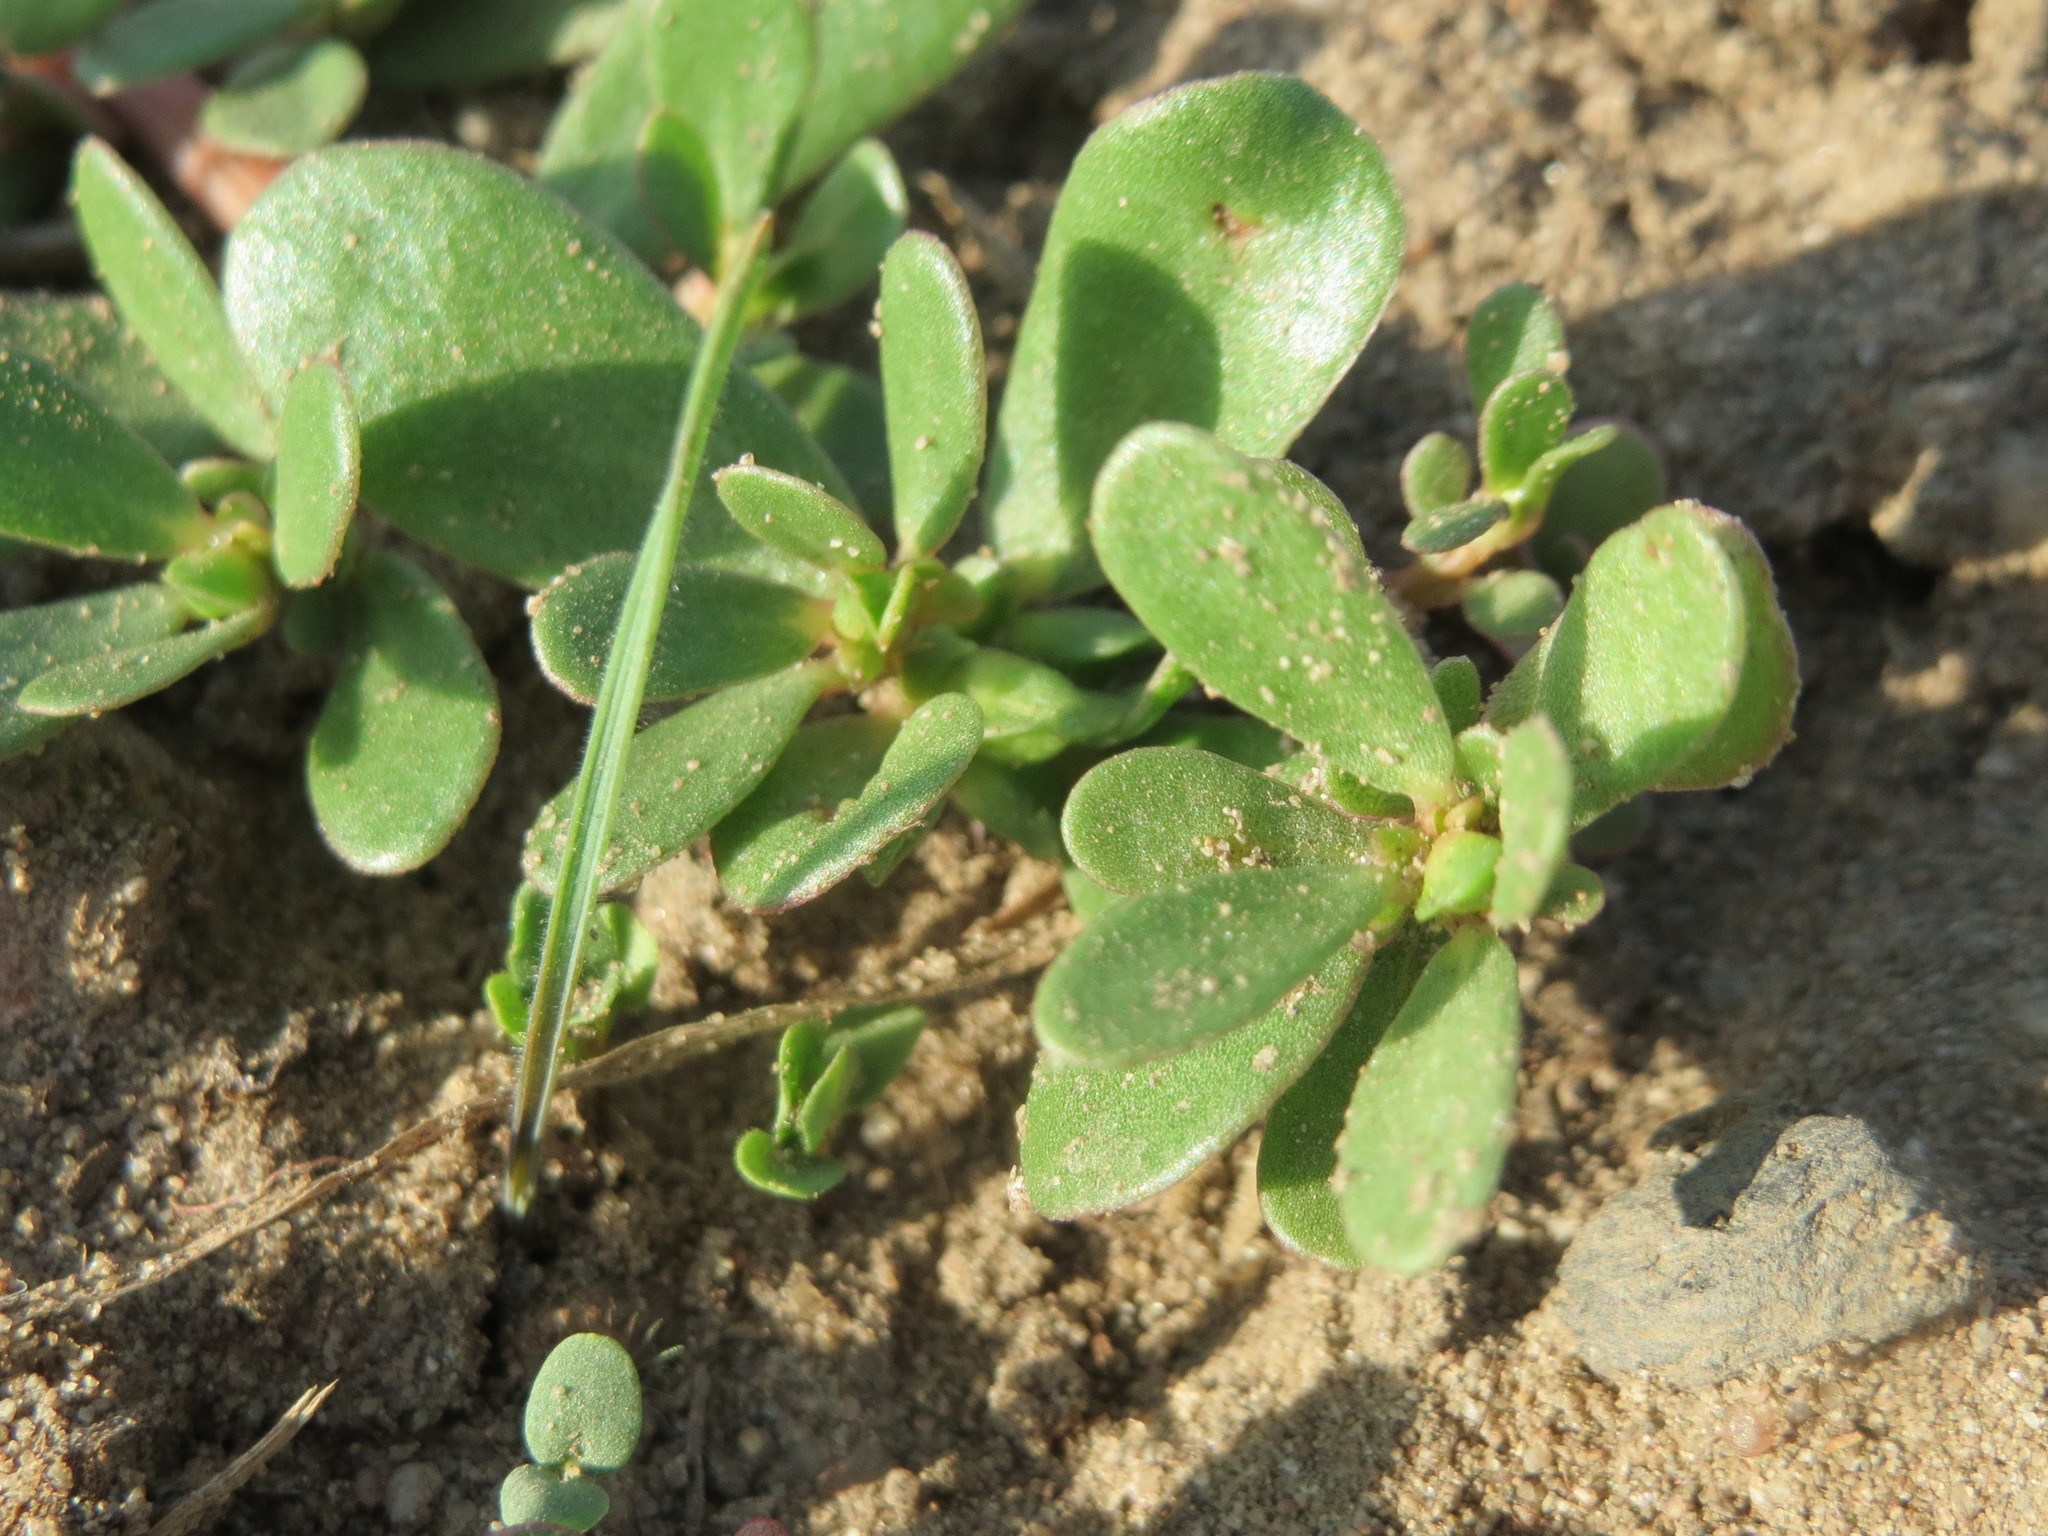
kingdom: Plantae
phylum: Tracheophyta
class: Magnoliopsida
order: Caryophyllales
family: Portulacaceae
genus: Portulaca
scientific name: Portulaca oleracea
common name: Common purslane
